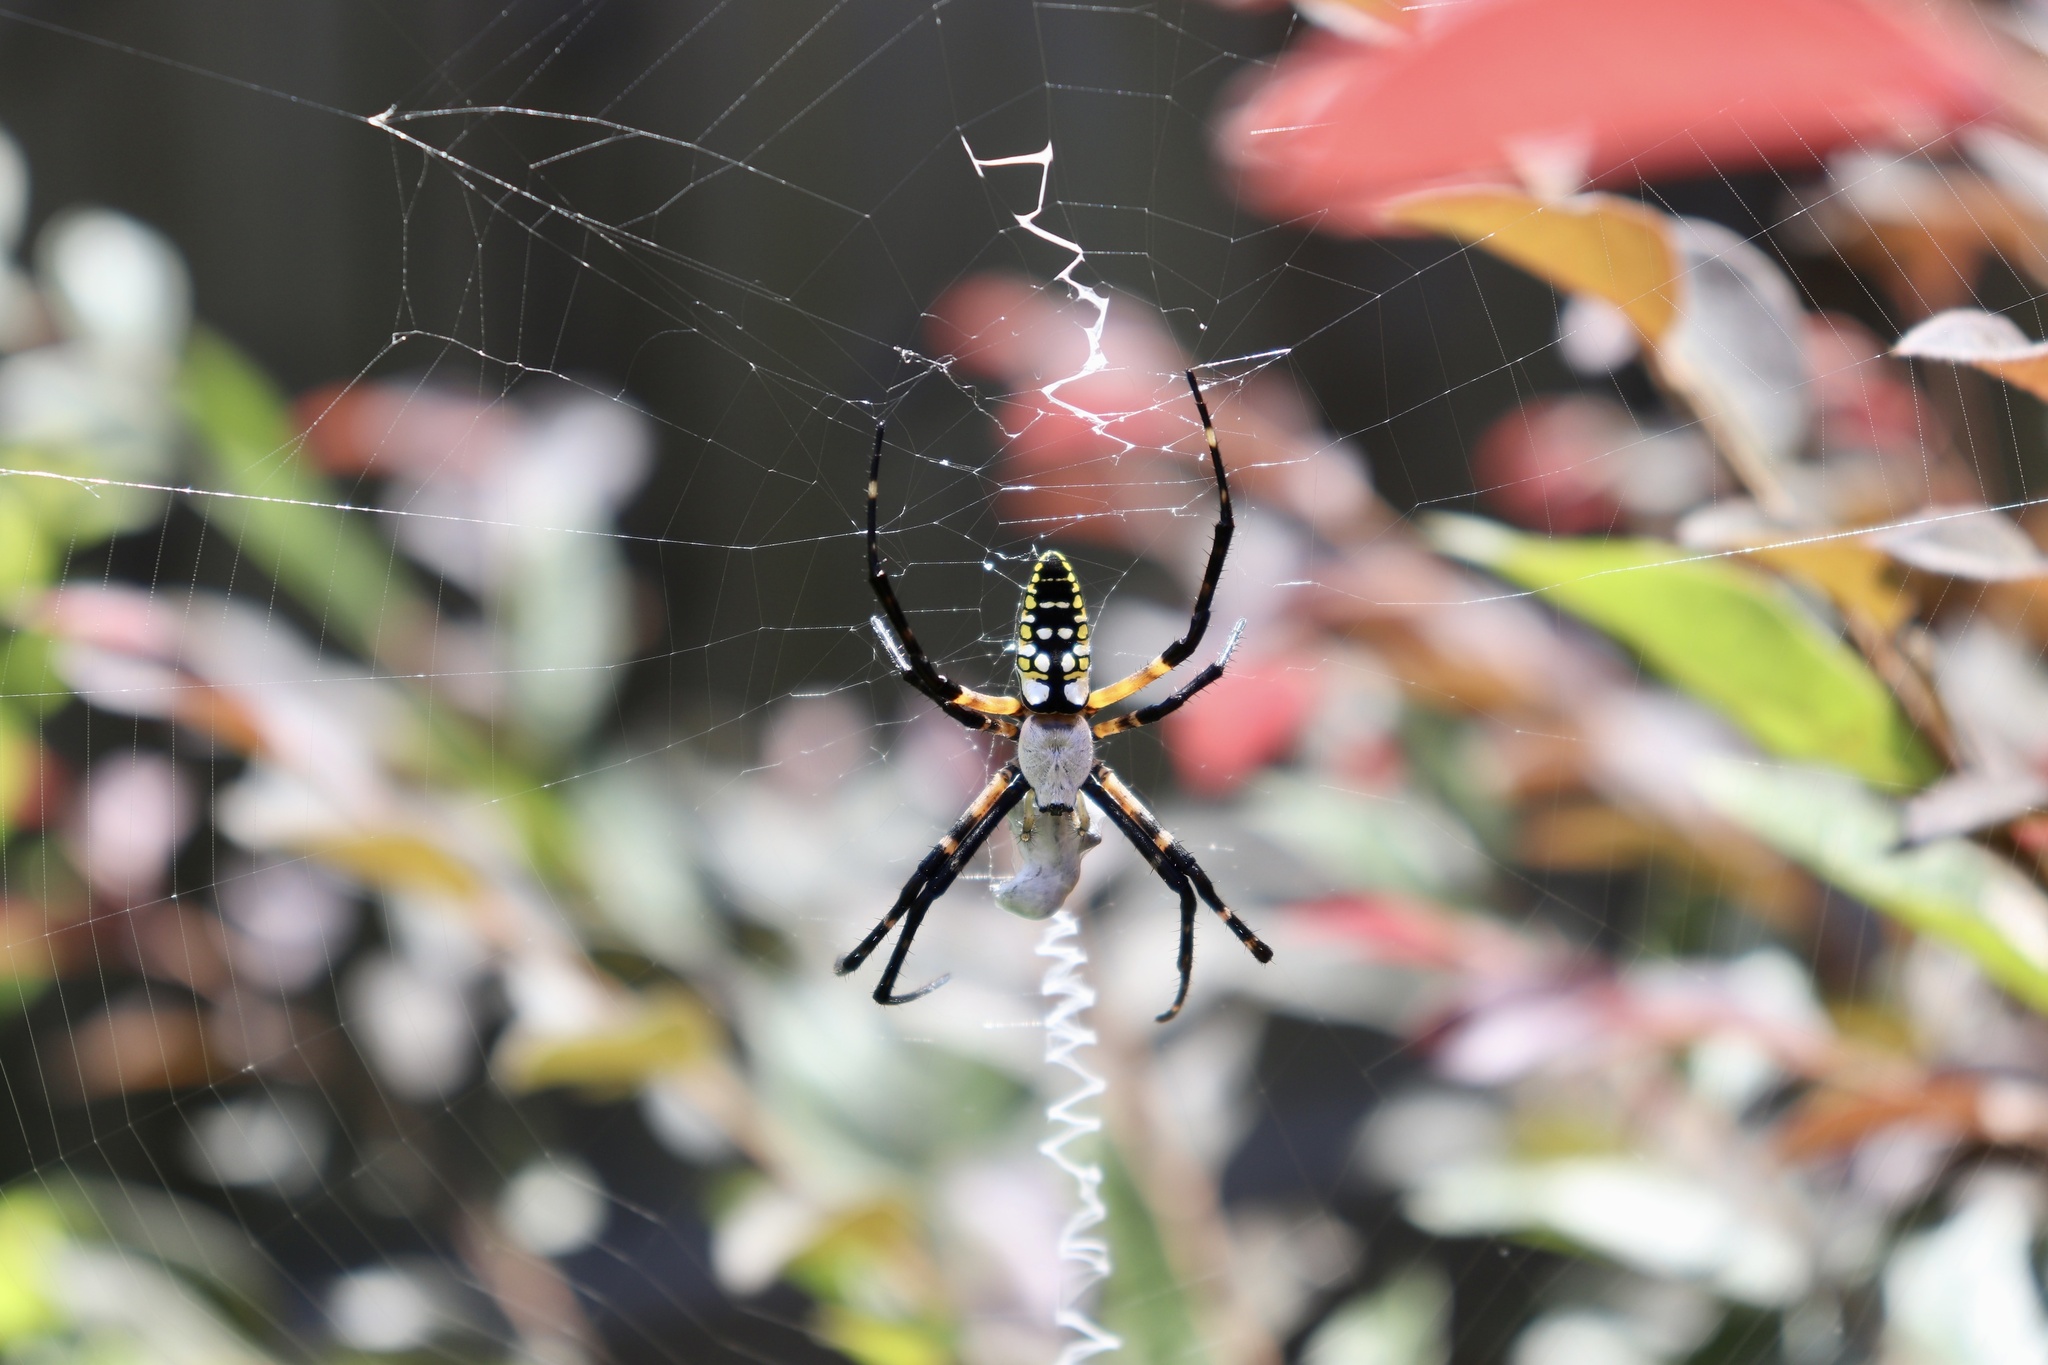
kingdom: Animalia
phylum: Arthropoda
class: Arachnida
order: Araneae
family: Araneidae
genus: Argiope
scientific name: Argiope aurantia
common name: Orb weavers
